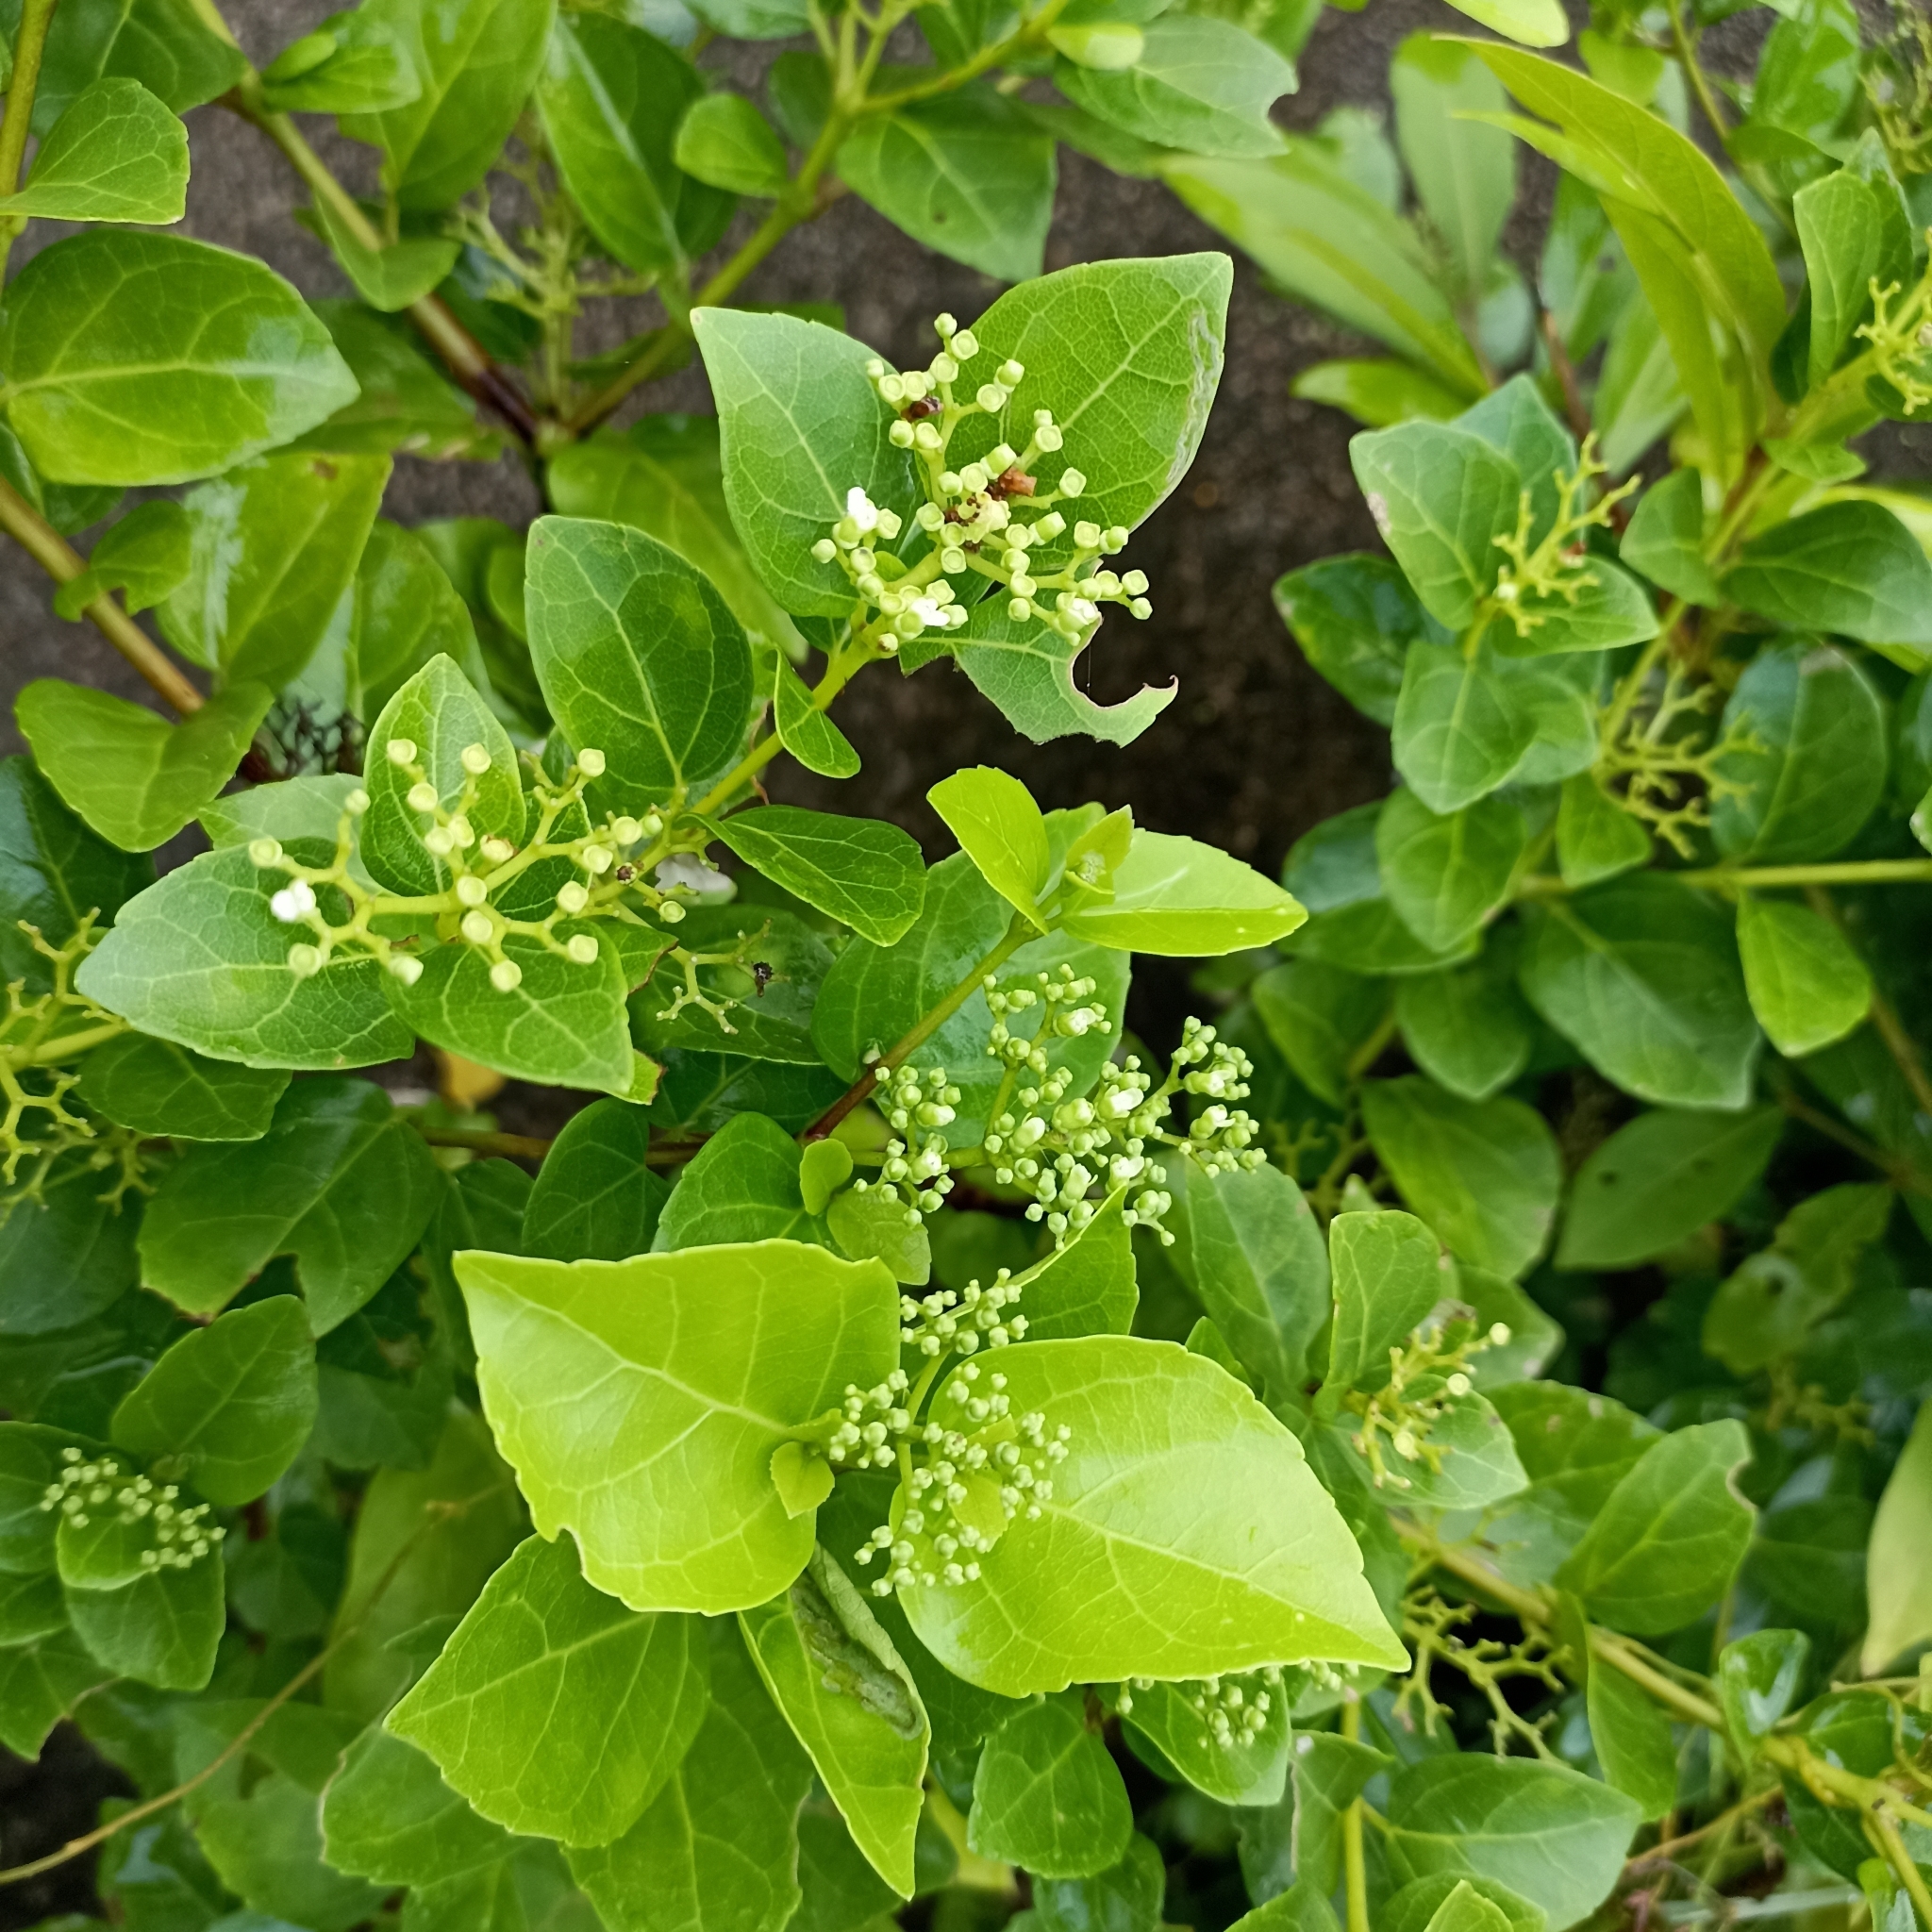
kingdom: Plantae
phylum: Tracheophyta
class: Magnoliopsida
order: Lamiales
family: Lamiaceae
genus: Premna
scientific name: Premna serratifolia
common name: Bastard guelder
